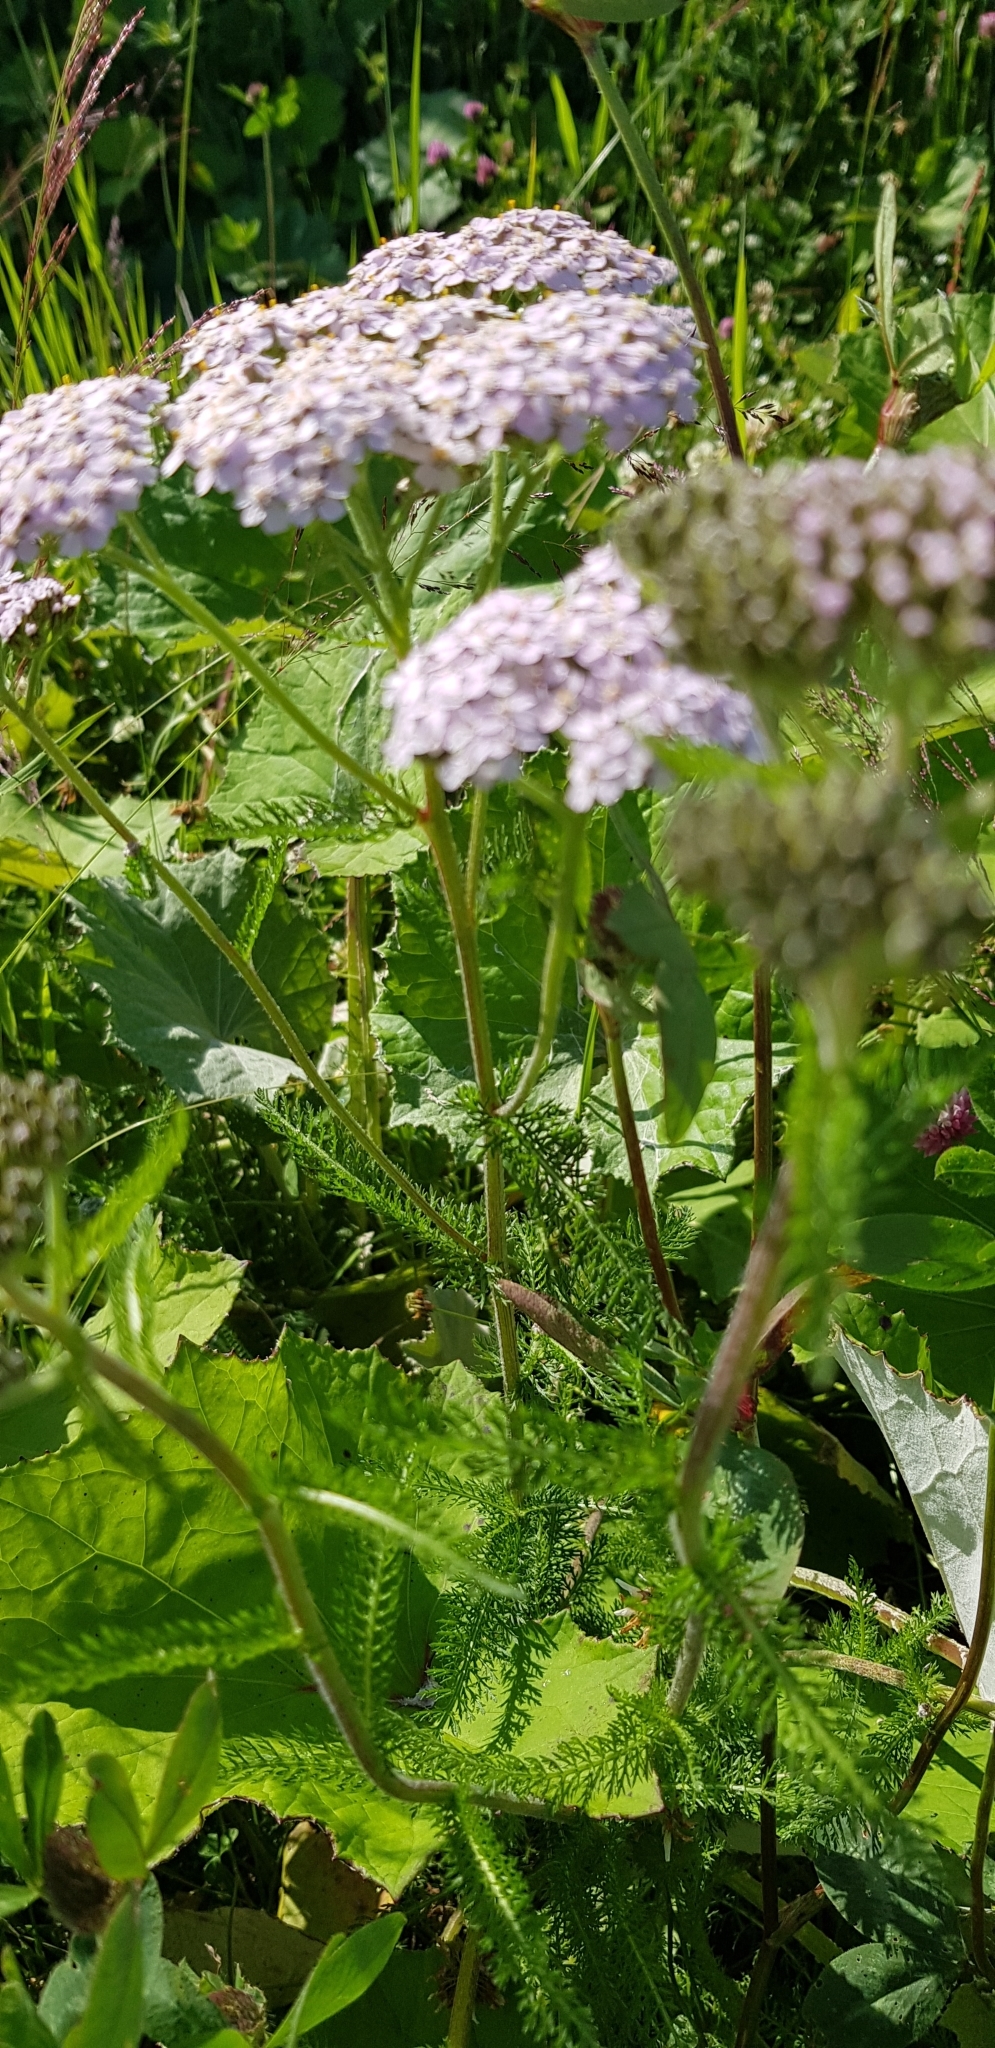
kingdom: Plantae
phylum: Tracheophyta
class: Magnoliopsida
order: Asterales
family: Asteraceae
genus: Achillea
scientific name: Achillea millefolium
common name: Yarrow
